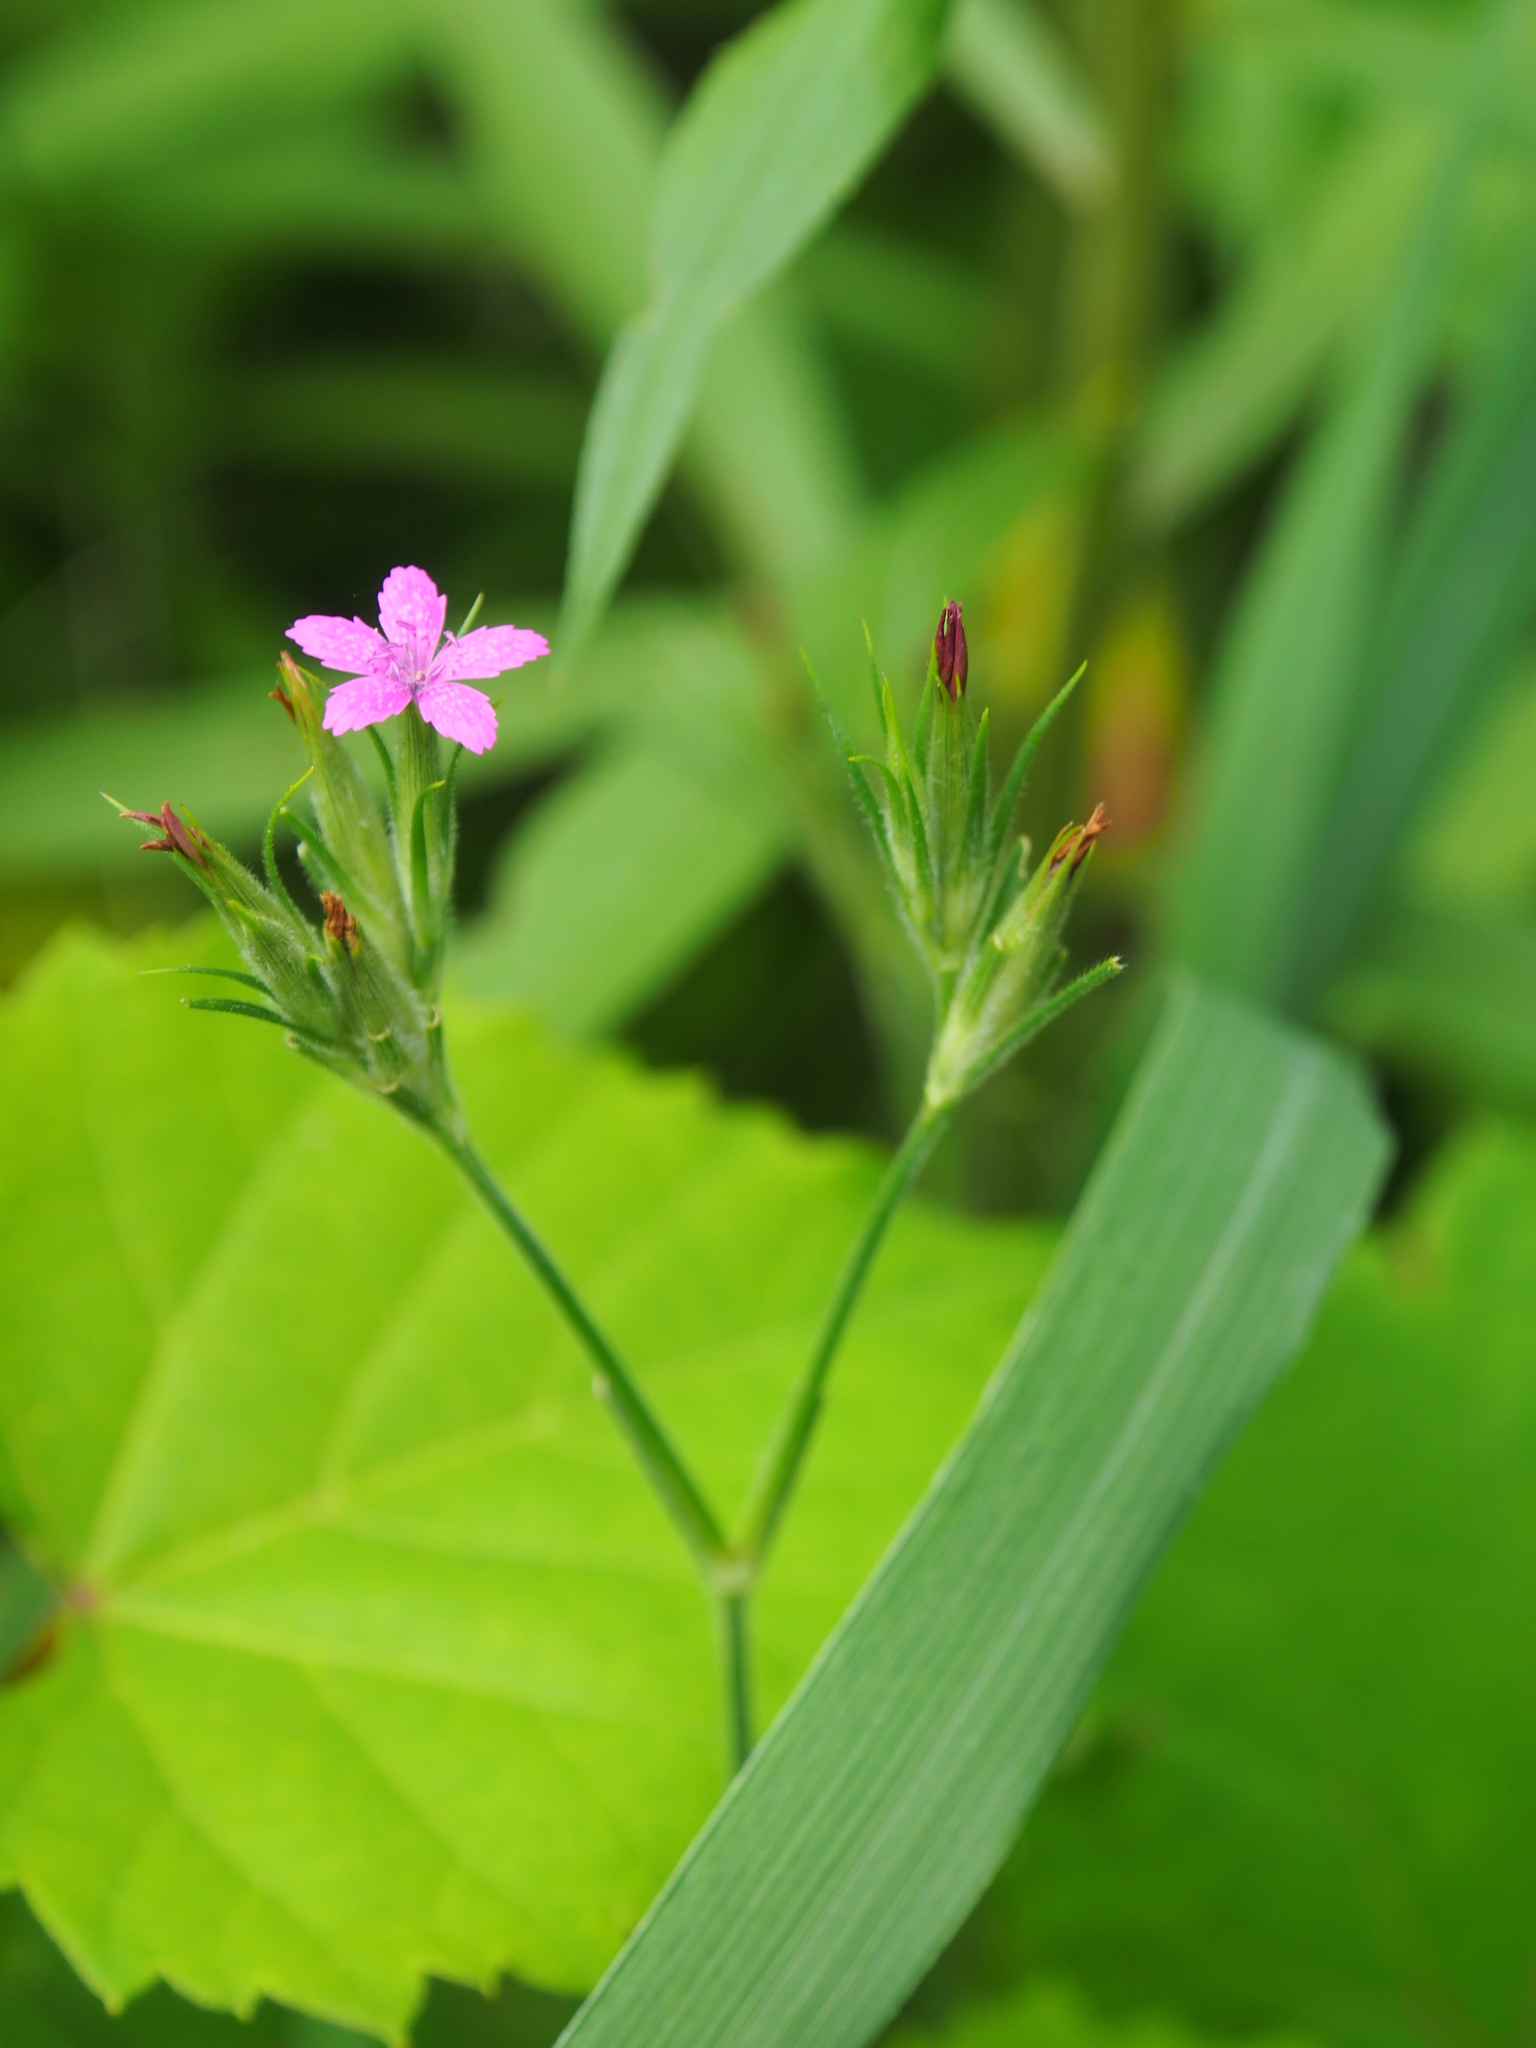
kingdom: Plantae
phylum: Tracheophyta
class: Magnoliopsida
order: Caryophyllales
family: Caryophyllaceae
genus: Dianthus
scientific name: Dianthus armeria
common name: Deptford pink
